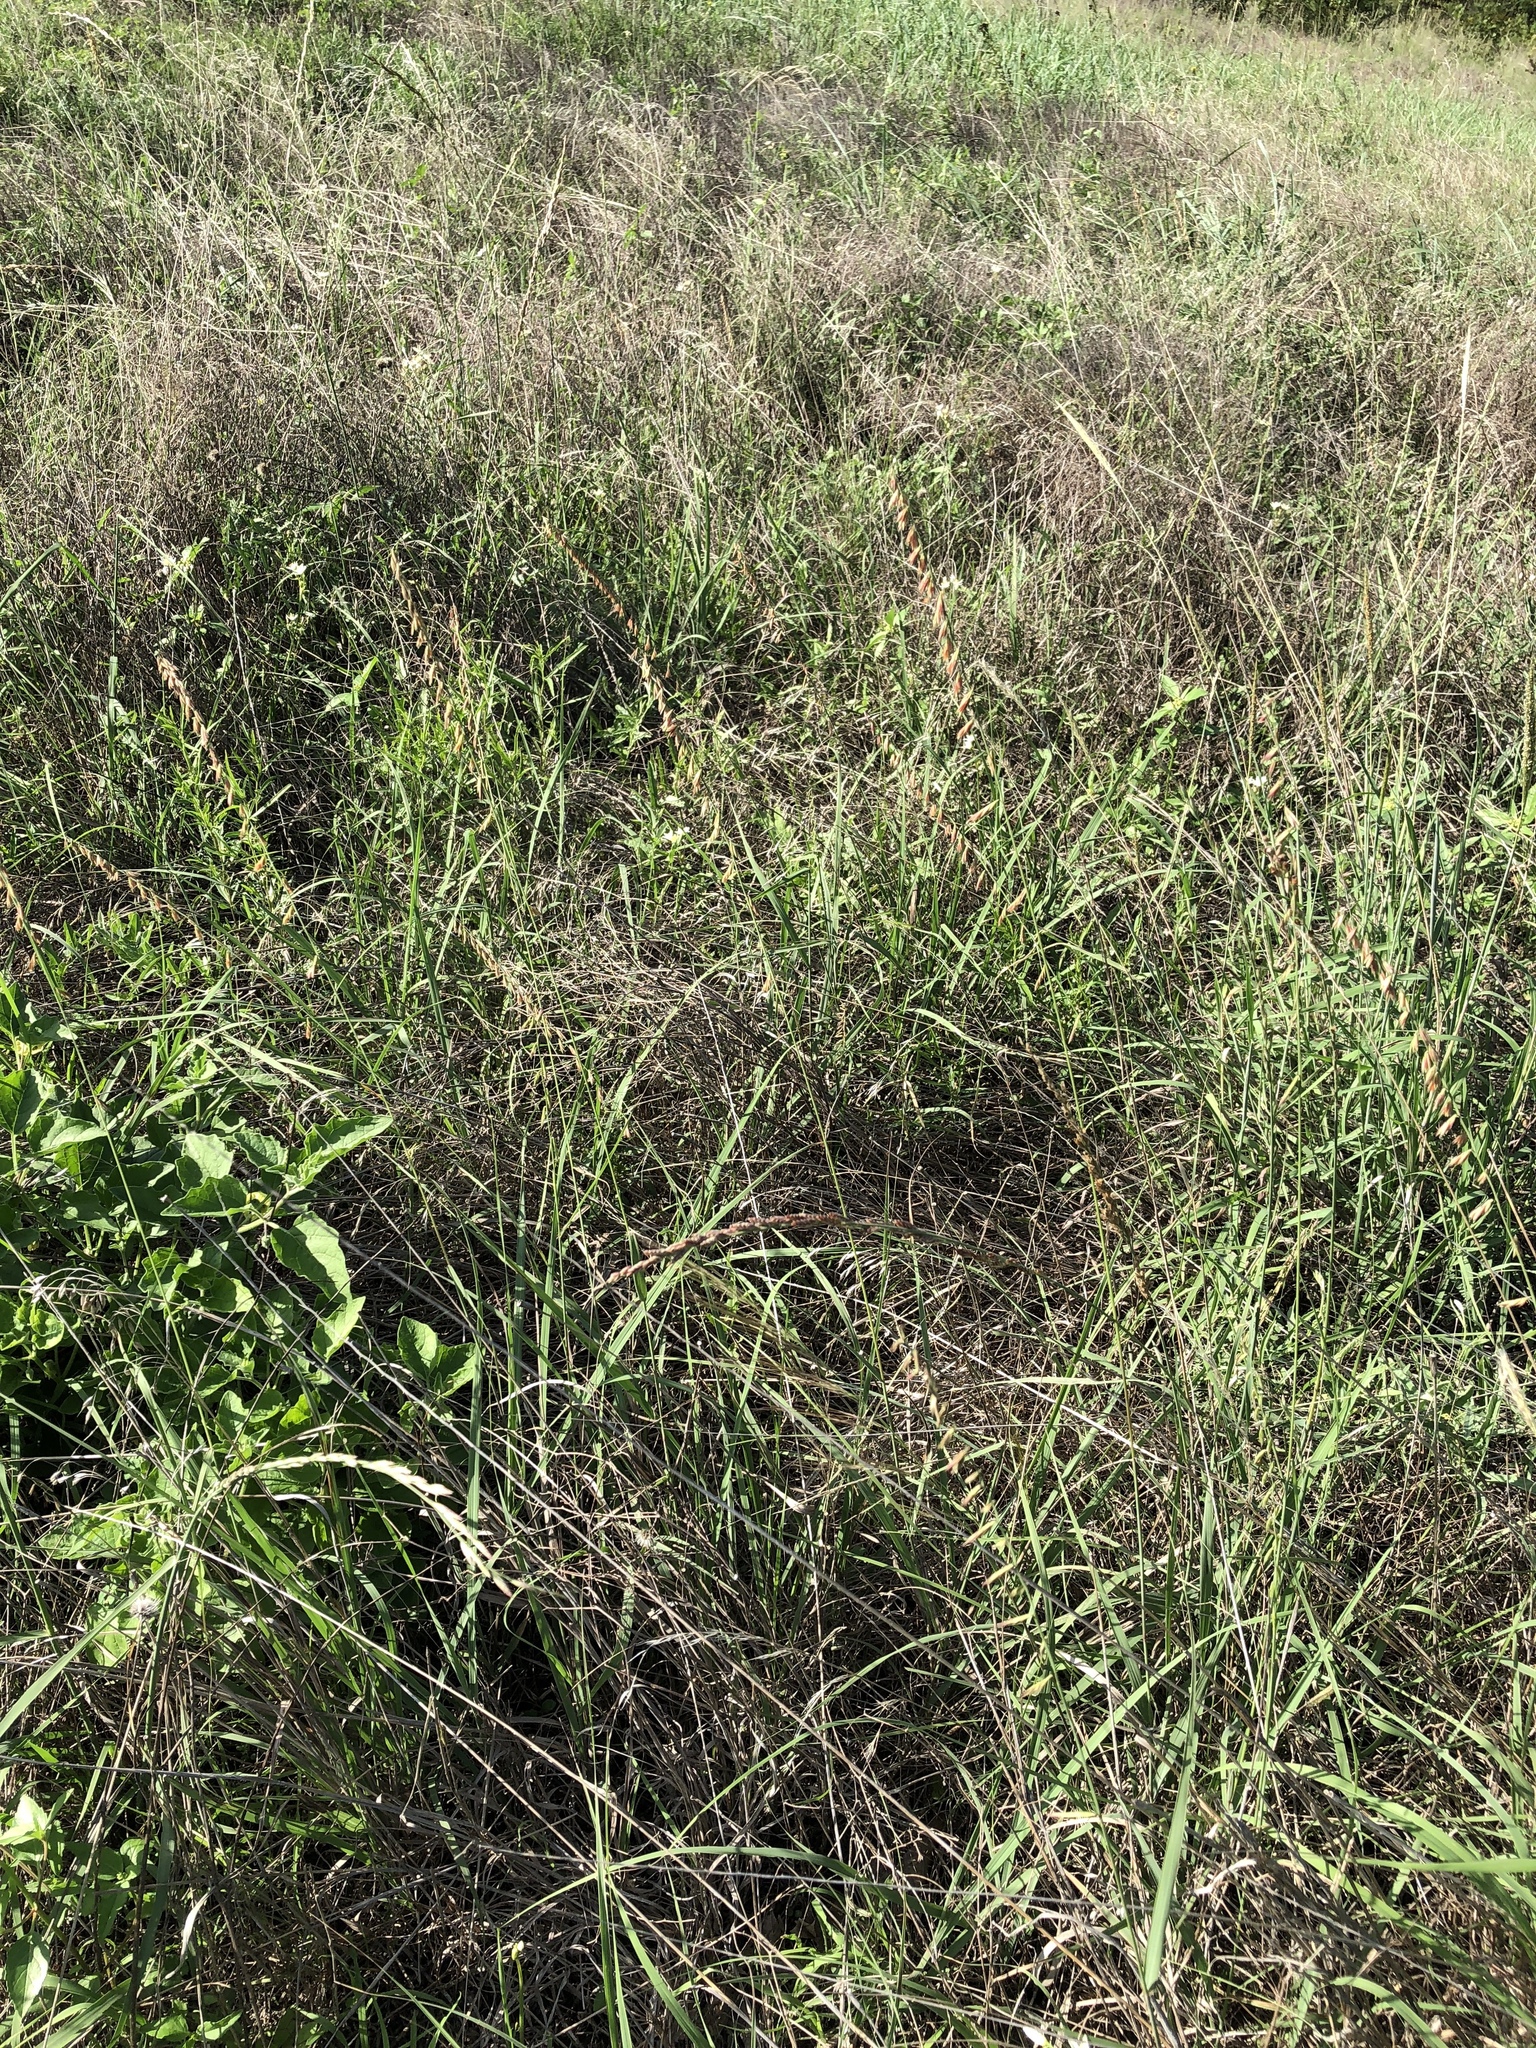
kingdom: Plantae
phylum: Tracheophyta
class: Liliopsida
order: Poales
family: Poaceae
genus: Bouteloua
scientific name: Bouteloua curtipendula
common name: Side-oats grama
